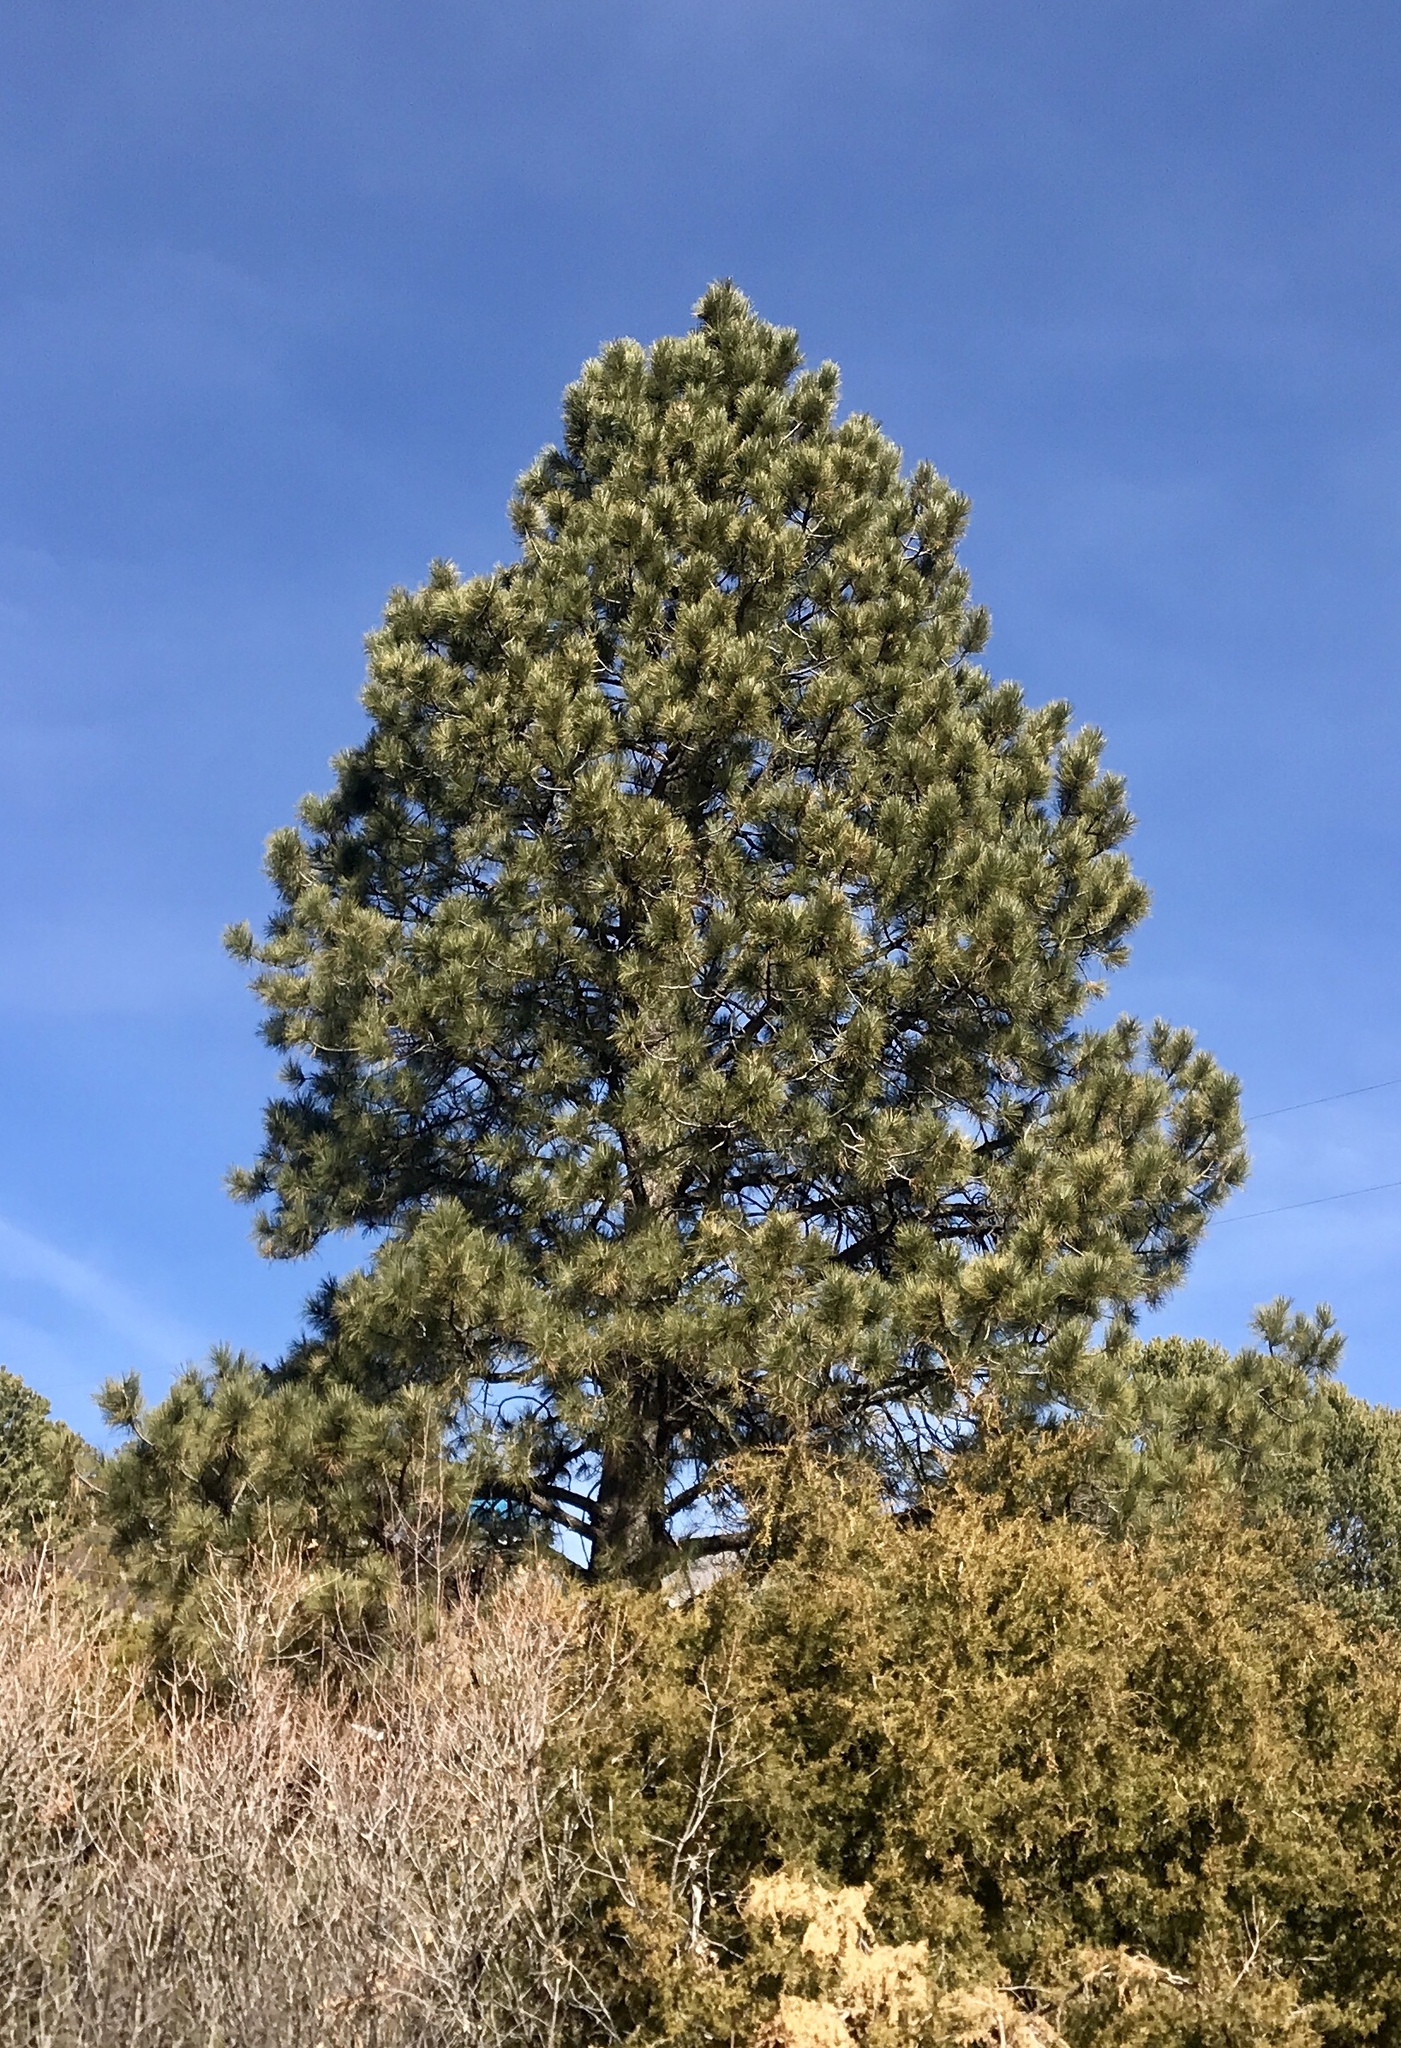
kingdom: Plantae
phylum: Tracheophyta
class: Pinopsida
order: Pinales
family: Pinaceae
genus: Pinus
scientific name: Pinus ponderosa
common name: Western yellow-pine
